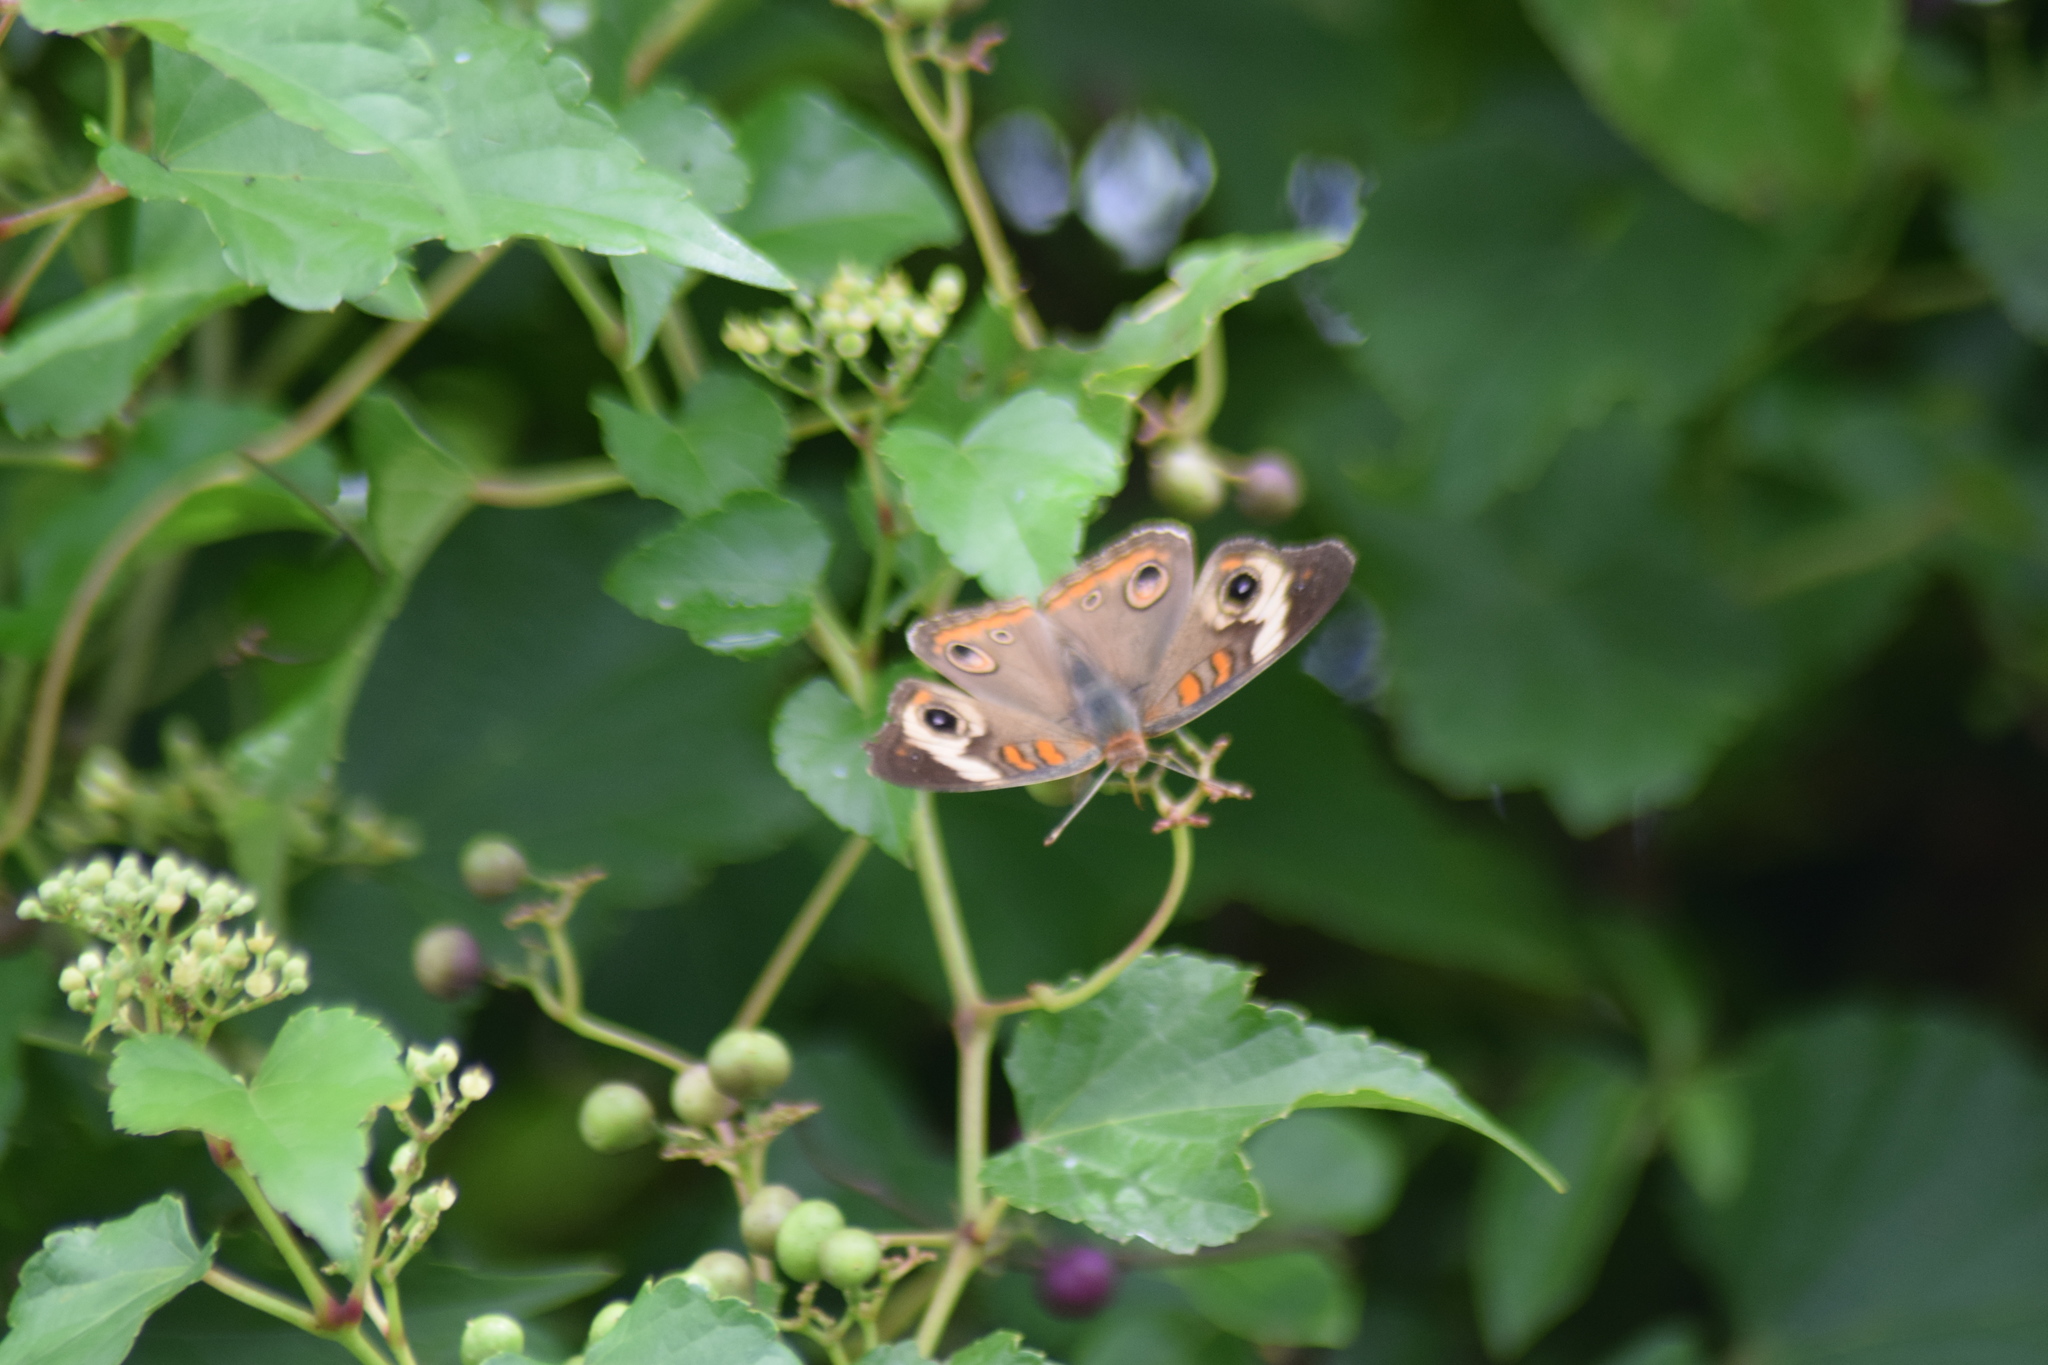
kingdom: Animalia
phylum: Arthropoda
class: Insecta
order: Lepidoptera
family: Nymphalidae
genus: Junonia
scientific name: Junonia coenia
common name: Common buckeye
